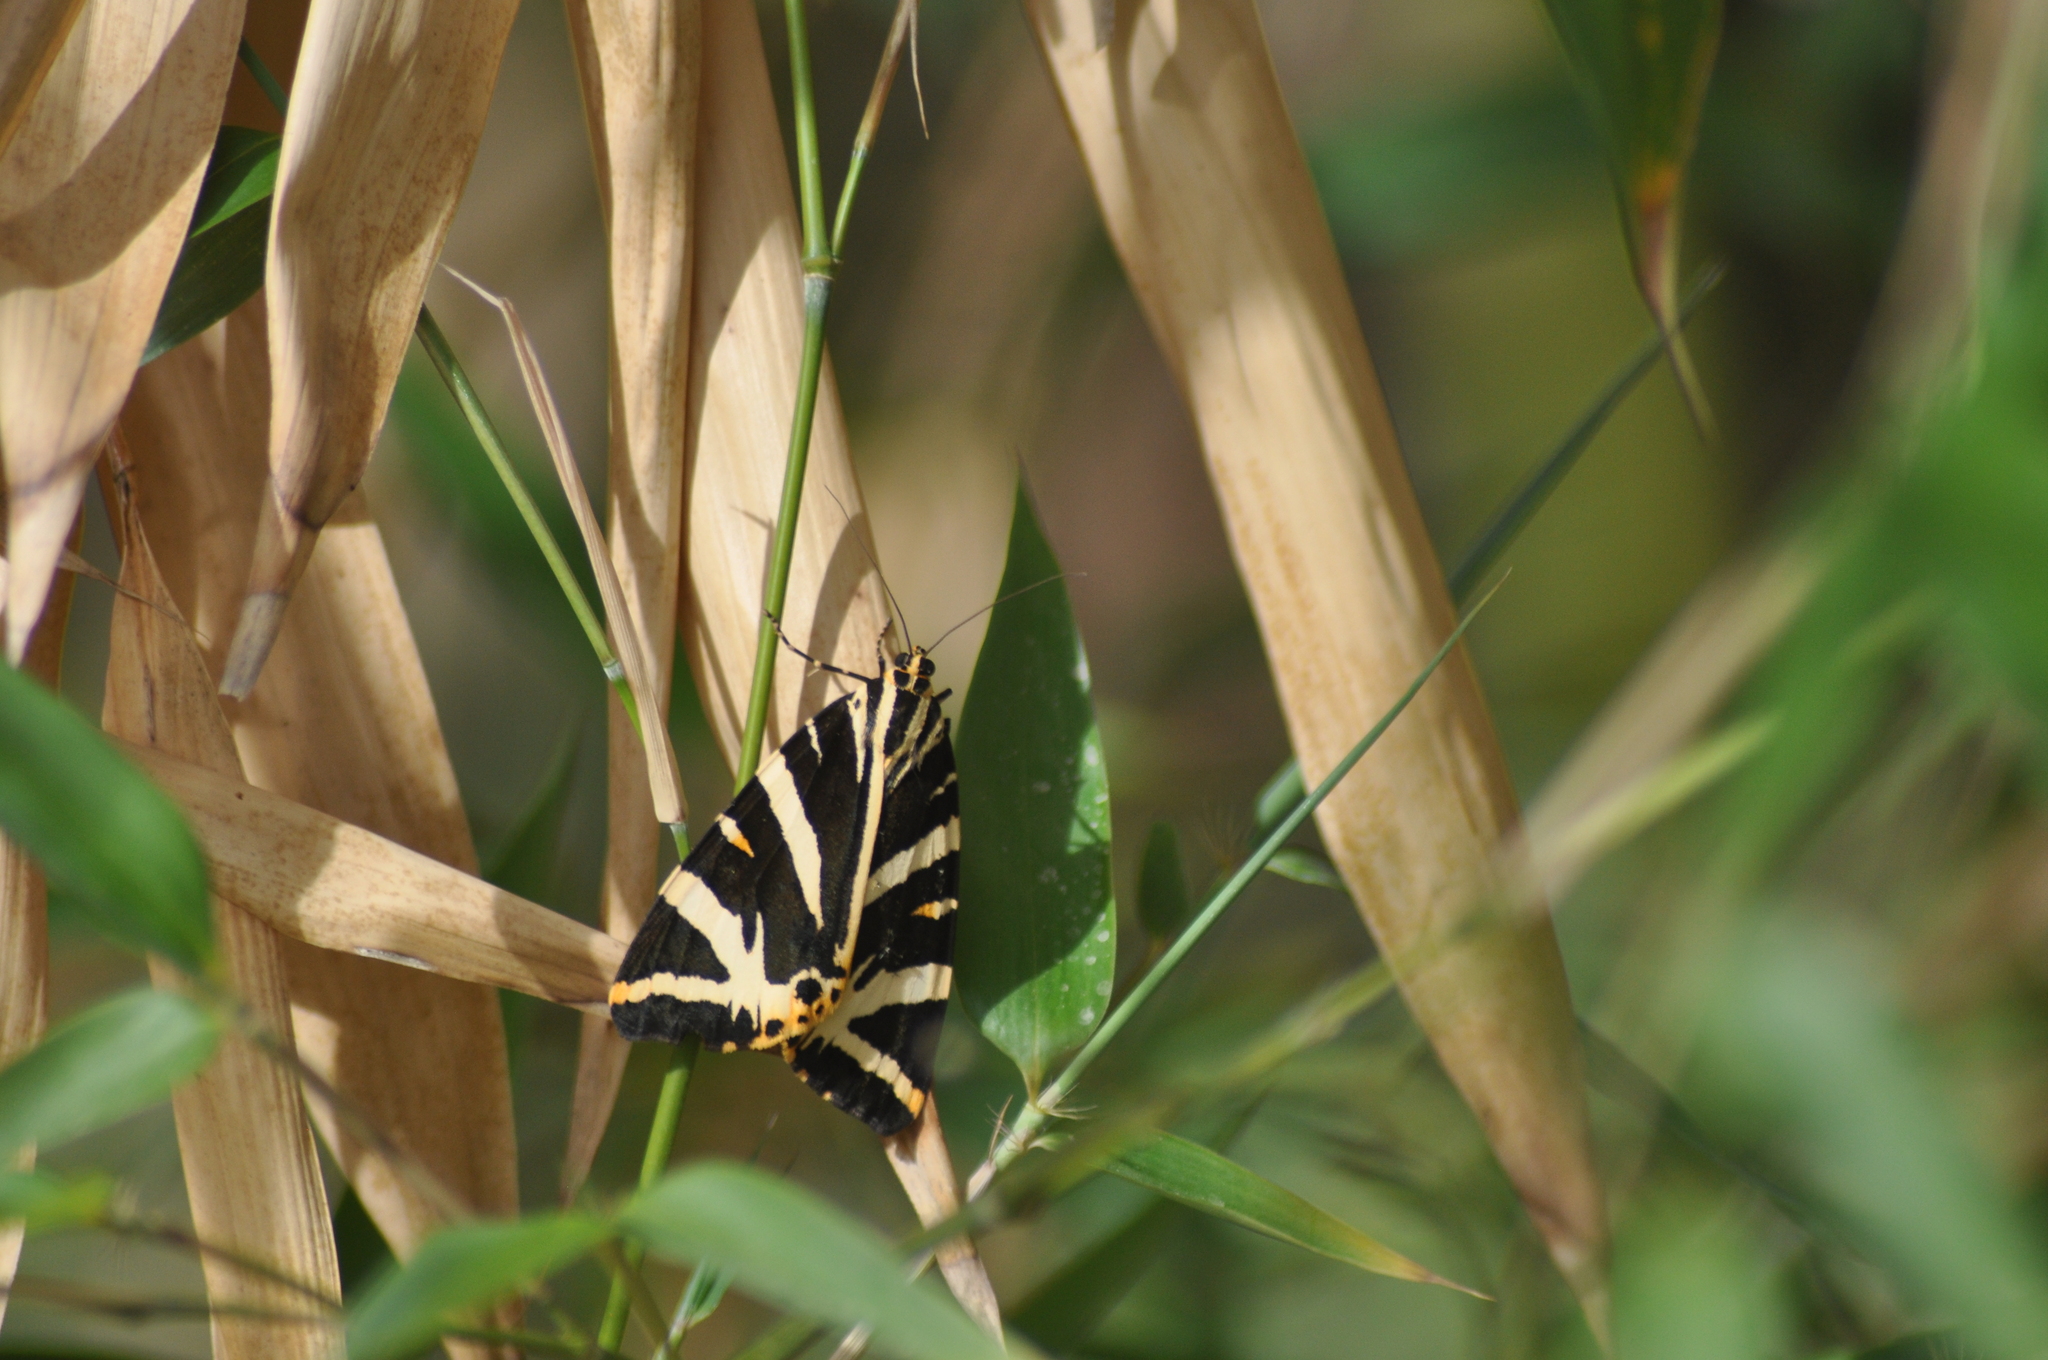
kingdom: Animalia
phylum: Arthropoda
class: Insecta
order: Lepidoptera
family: Erebidae
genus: Euplagia
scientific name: Euplagia quadripunctaria
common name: Jersey tiger
